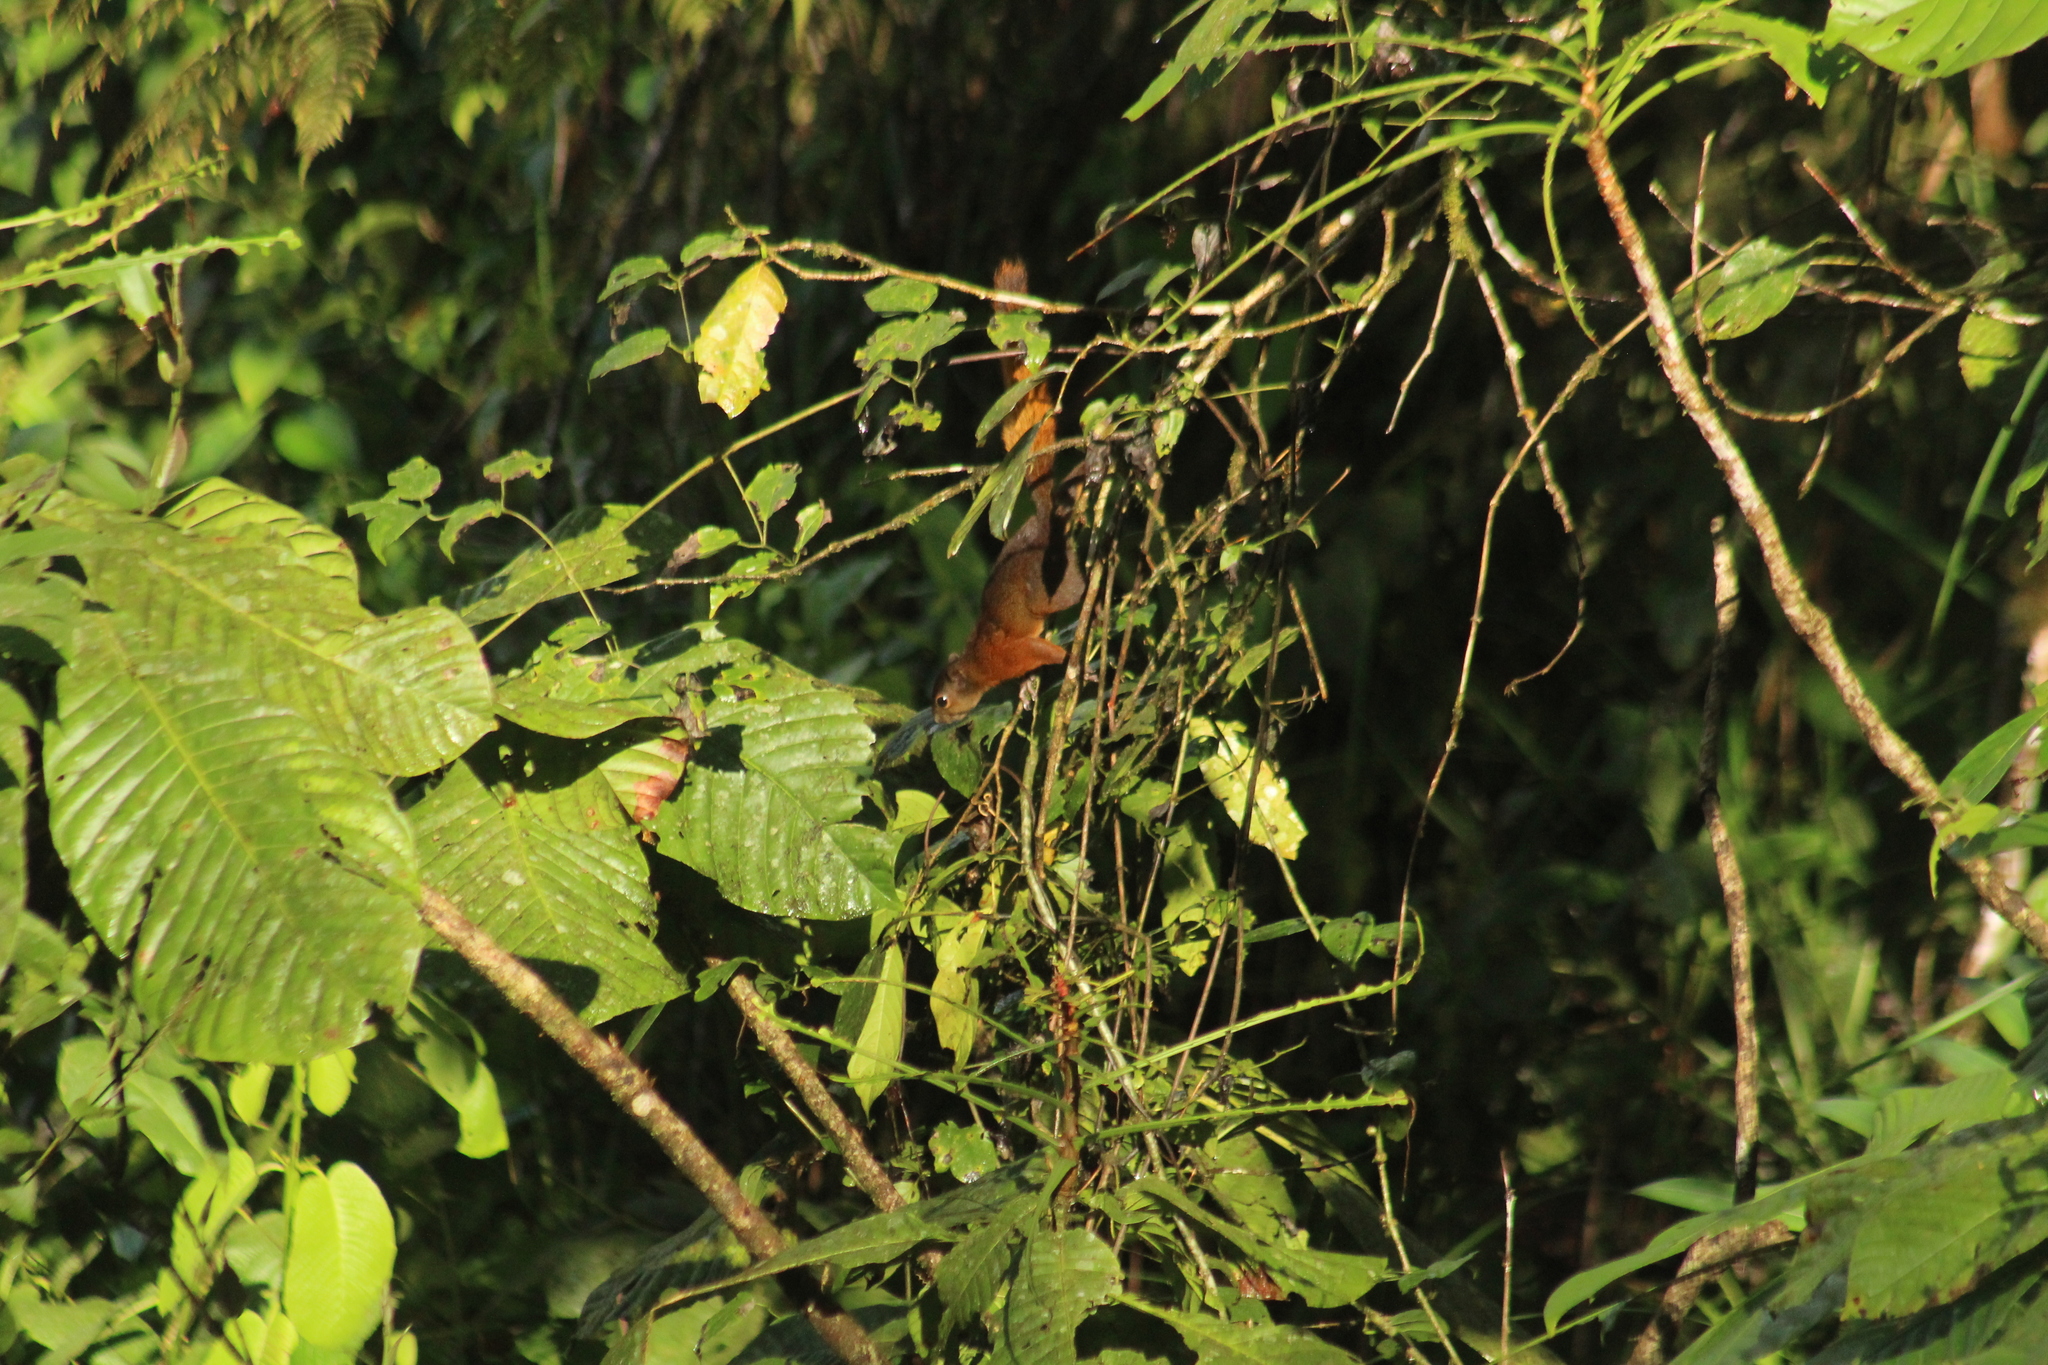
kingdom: Animalia
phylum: Chordata
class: Mammalia
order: Rodentia
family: Sciuridae
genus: Sciurus
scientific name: Sciurus granatensis
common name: Red-tailed squirrel
